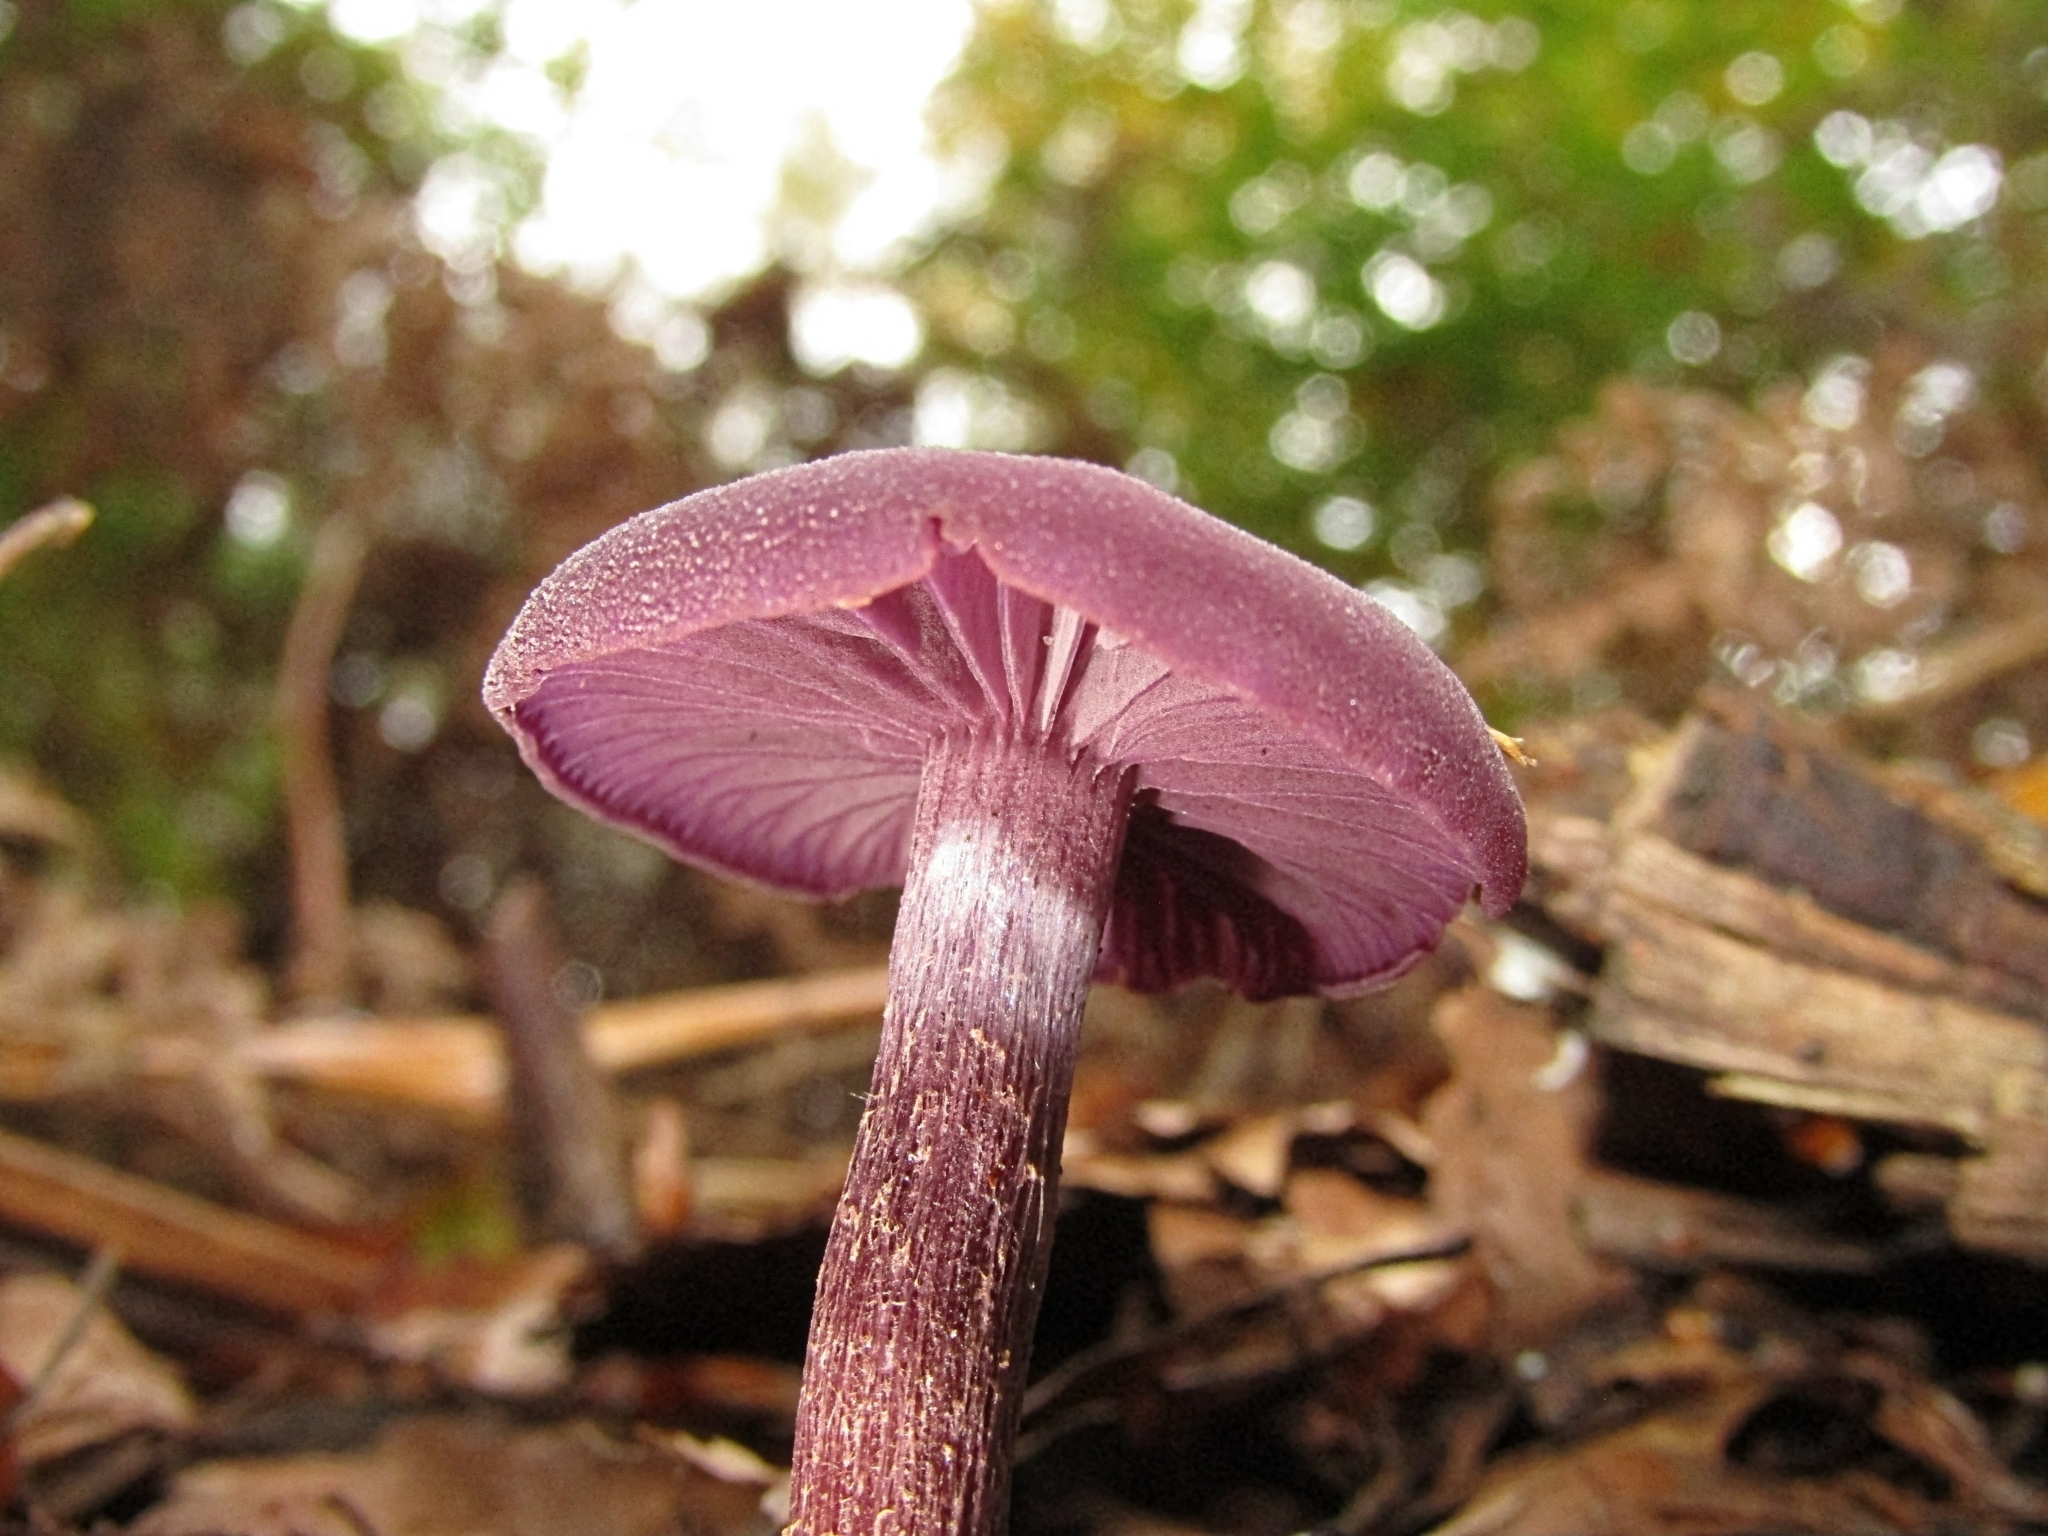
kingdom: Fungi
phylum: Basidiomycota
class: Agaricomycetes
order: Agaricales
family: Hydnangiaceae
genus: Laccaria
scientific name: Laccaria amethystina
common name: Amethyst deceiver
